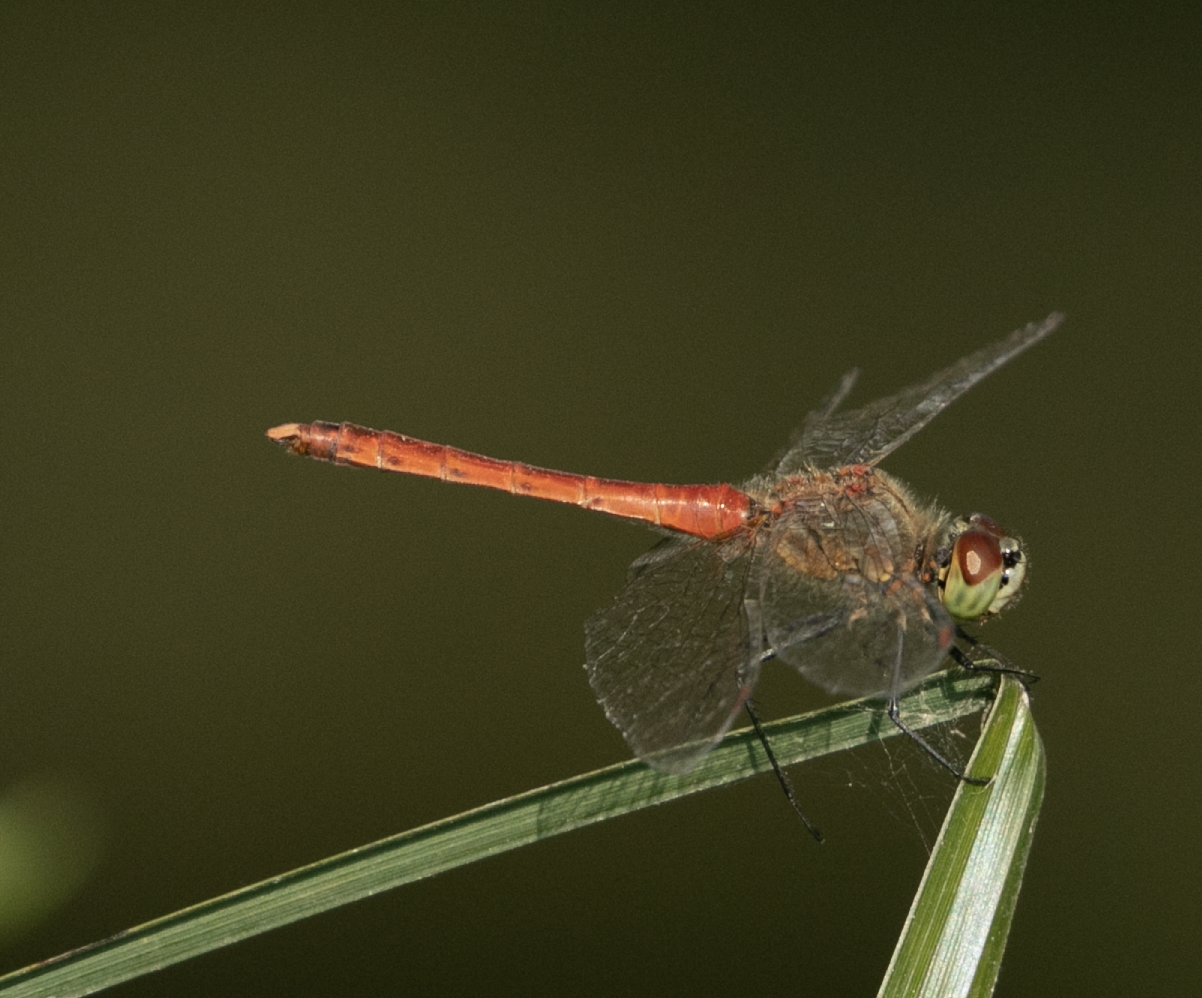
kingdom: Animalia
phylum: Arthropoda
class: Insecta
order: Odonata
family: Libellulidae
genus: Sympetrum
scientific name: Sympetrum depressiusculum
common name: Spotted darter
